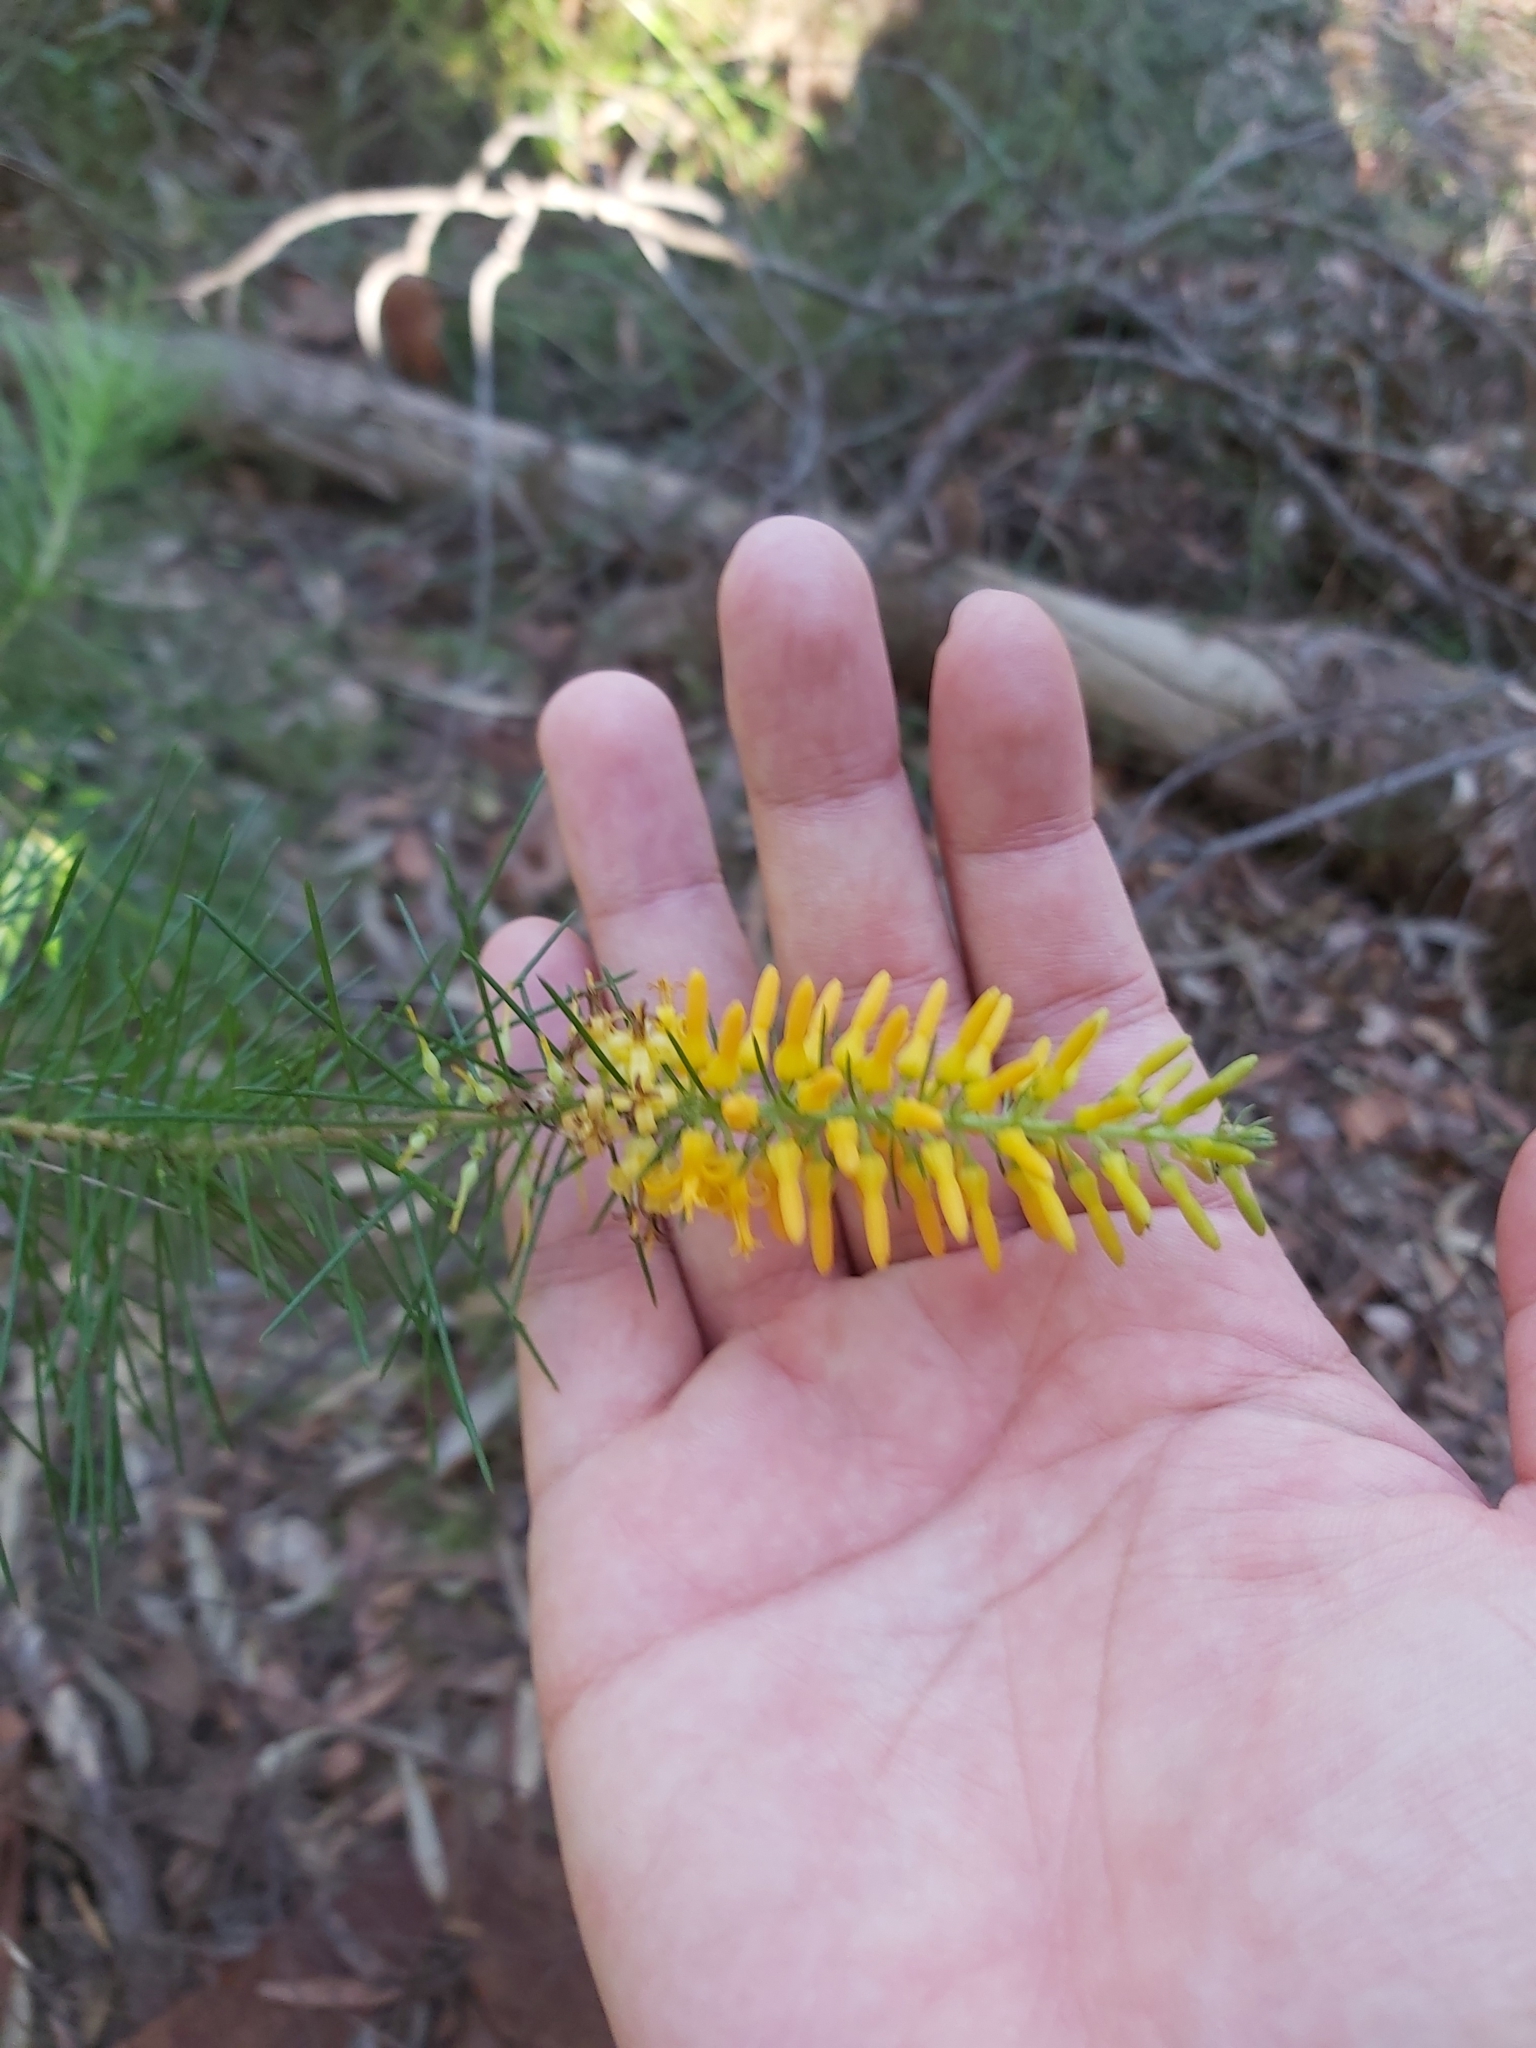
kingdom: Plantae
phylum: Tracheophyta
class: Magnoliopsida
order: Proteales
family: Proteaceae
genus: Persoonia
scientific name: Persoonia pinifolia
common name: Pine-leaf geebung
